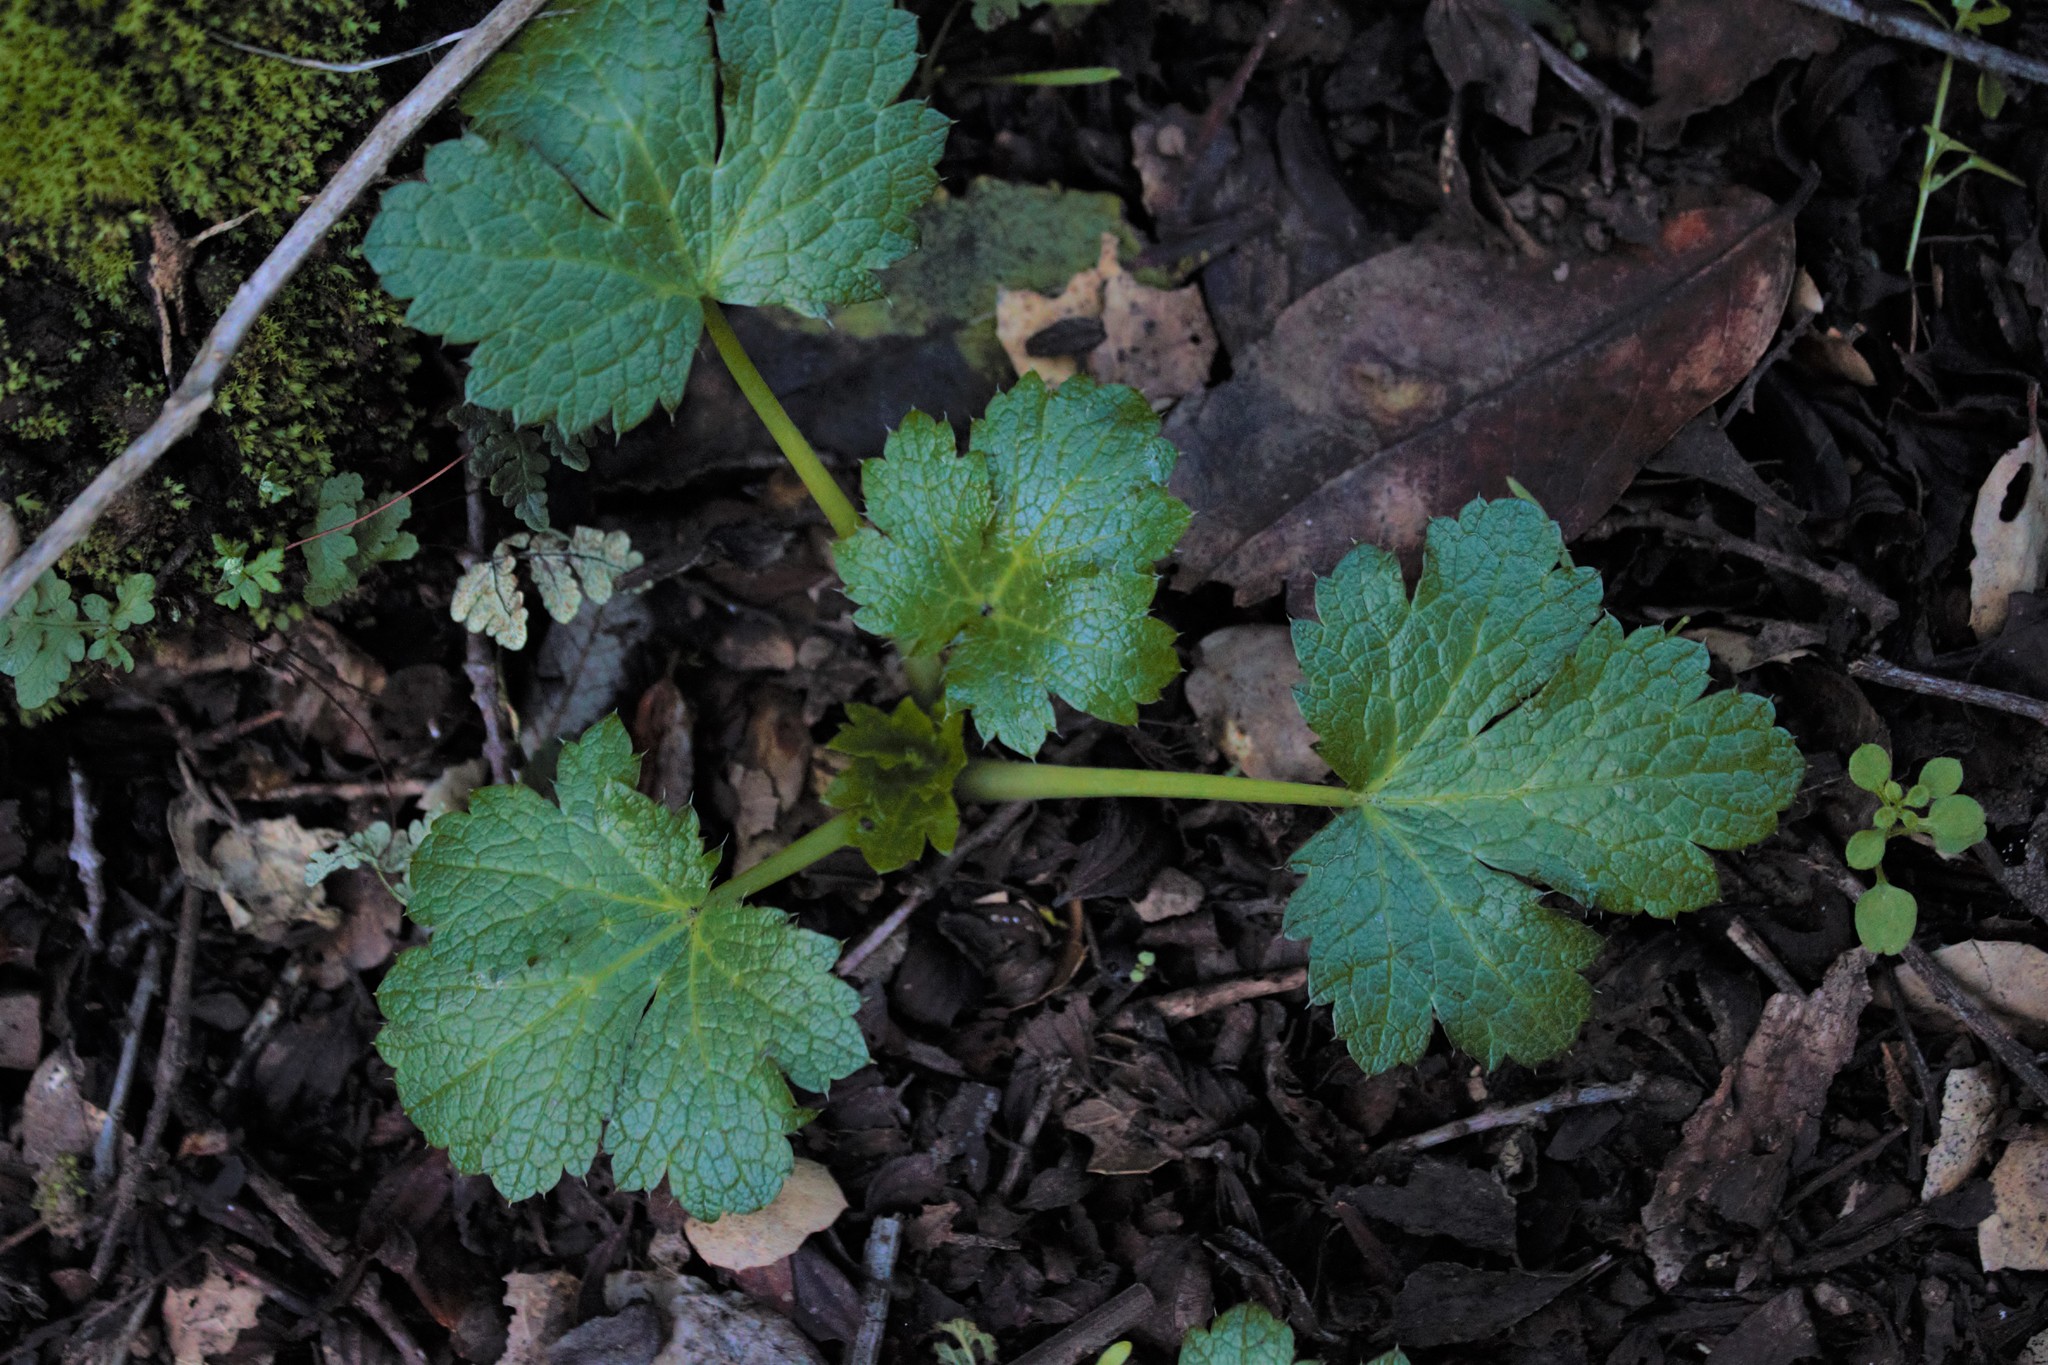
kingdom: Plantae
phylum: Tracheophyta
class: Magnoliopsida
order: Apiales
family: Apiaceae
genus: Sanicula
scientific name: Sanicula crassicaulis
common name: Western snakeroot
